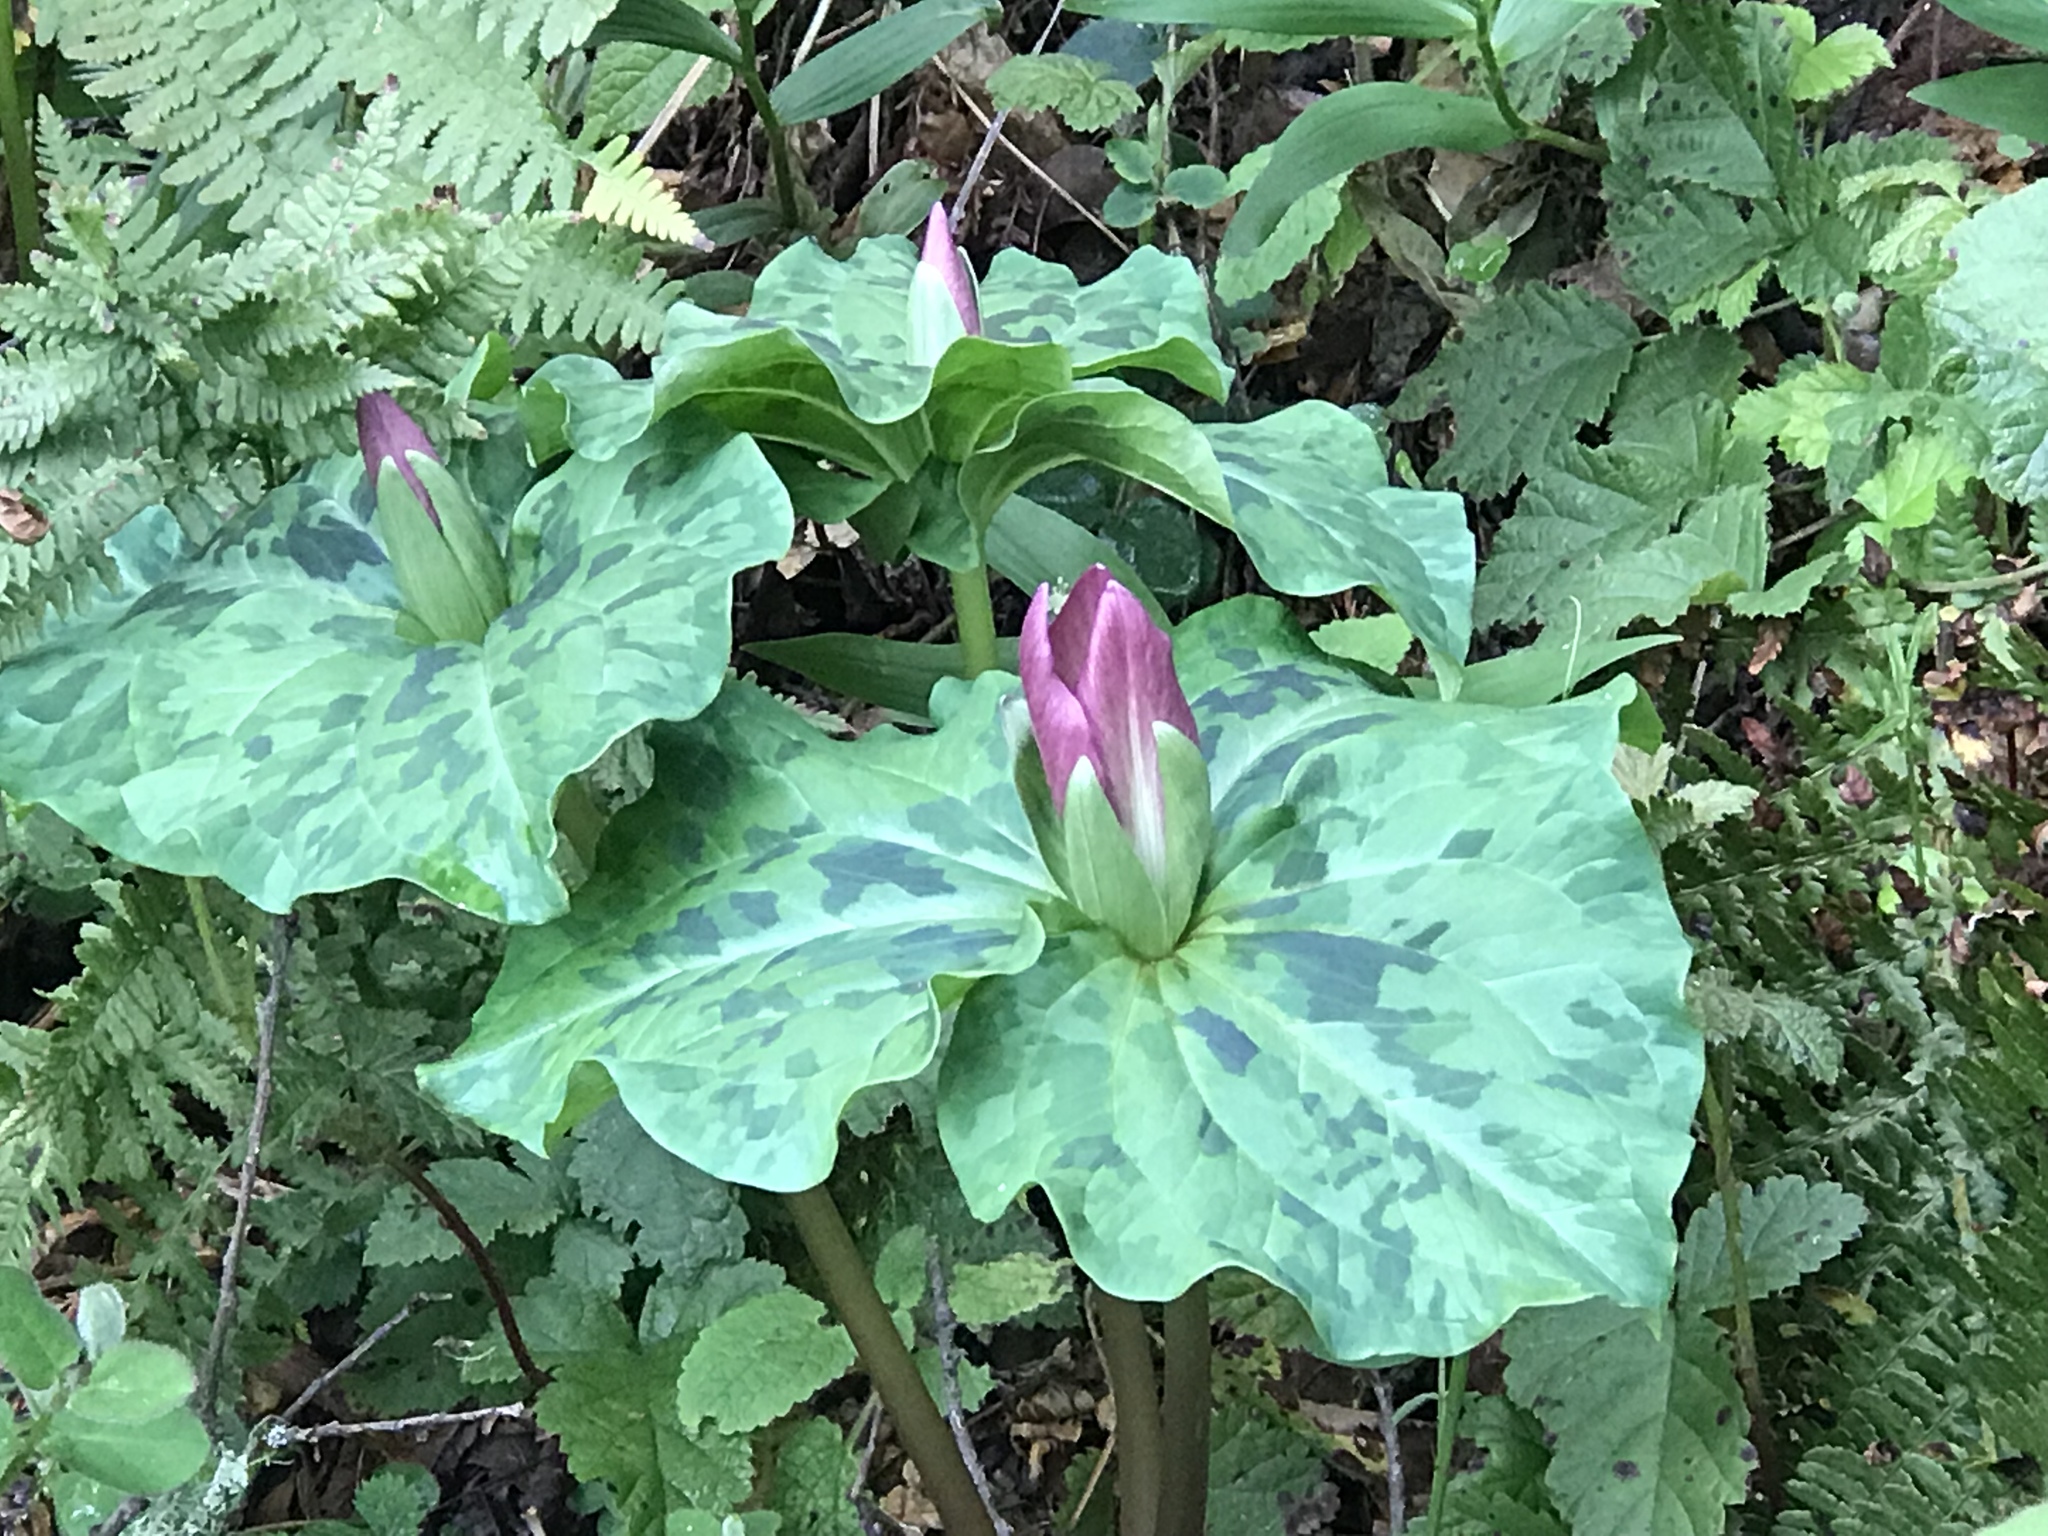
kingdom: Plantae
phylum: Tracheophyta
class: Liliopsida
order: Liliales
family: Melanthiaceae
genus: Trillium
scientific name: Trillium chloropetalum
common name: Giant trillium
